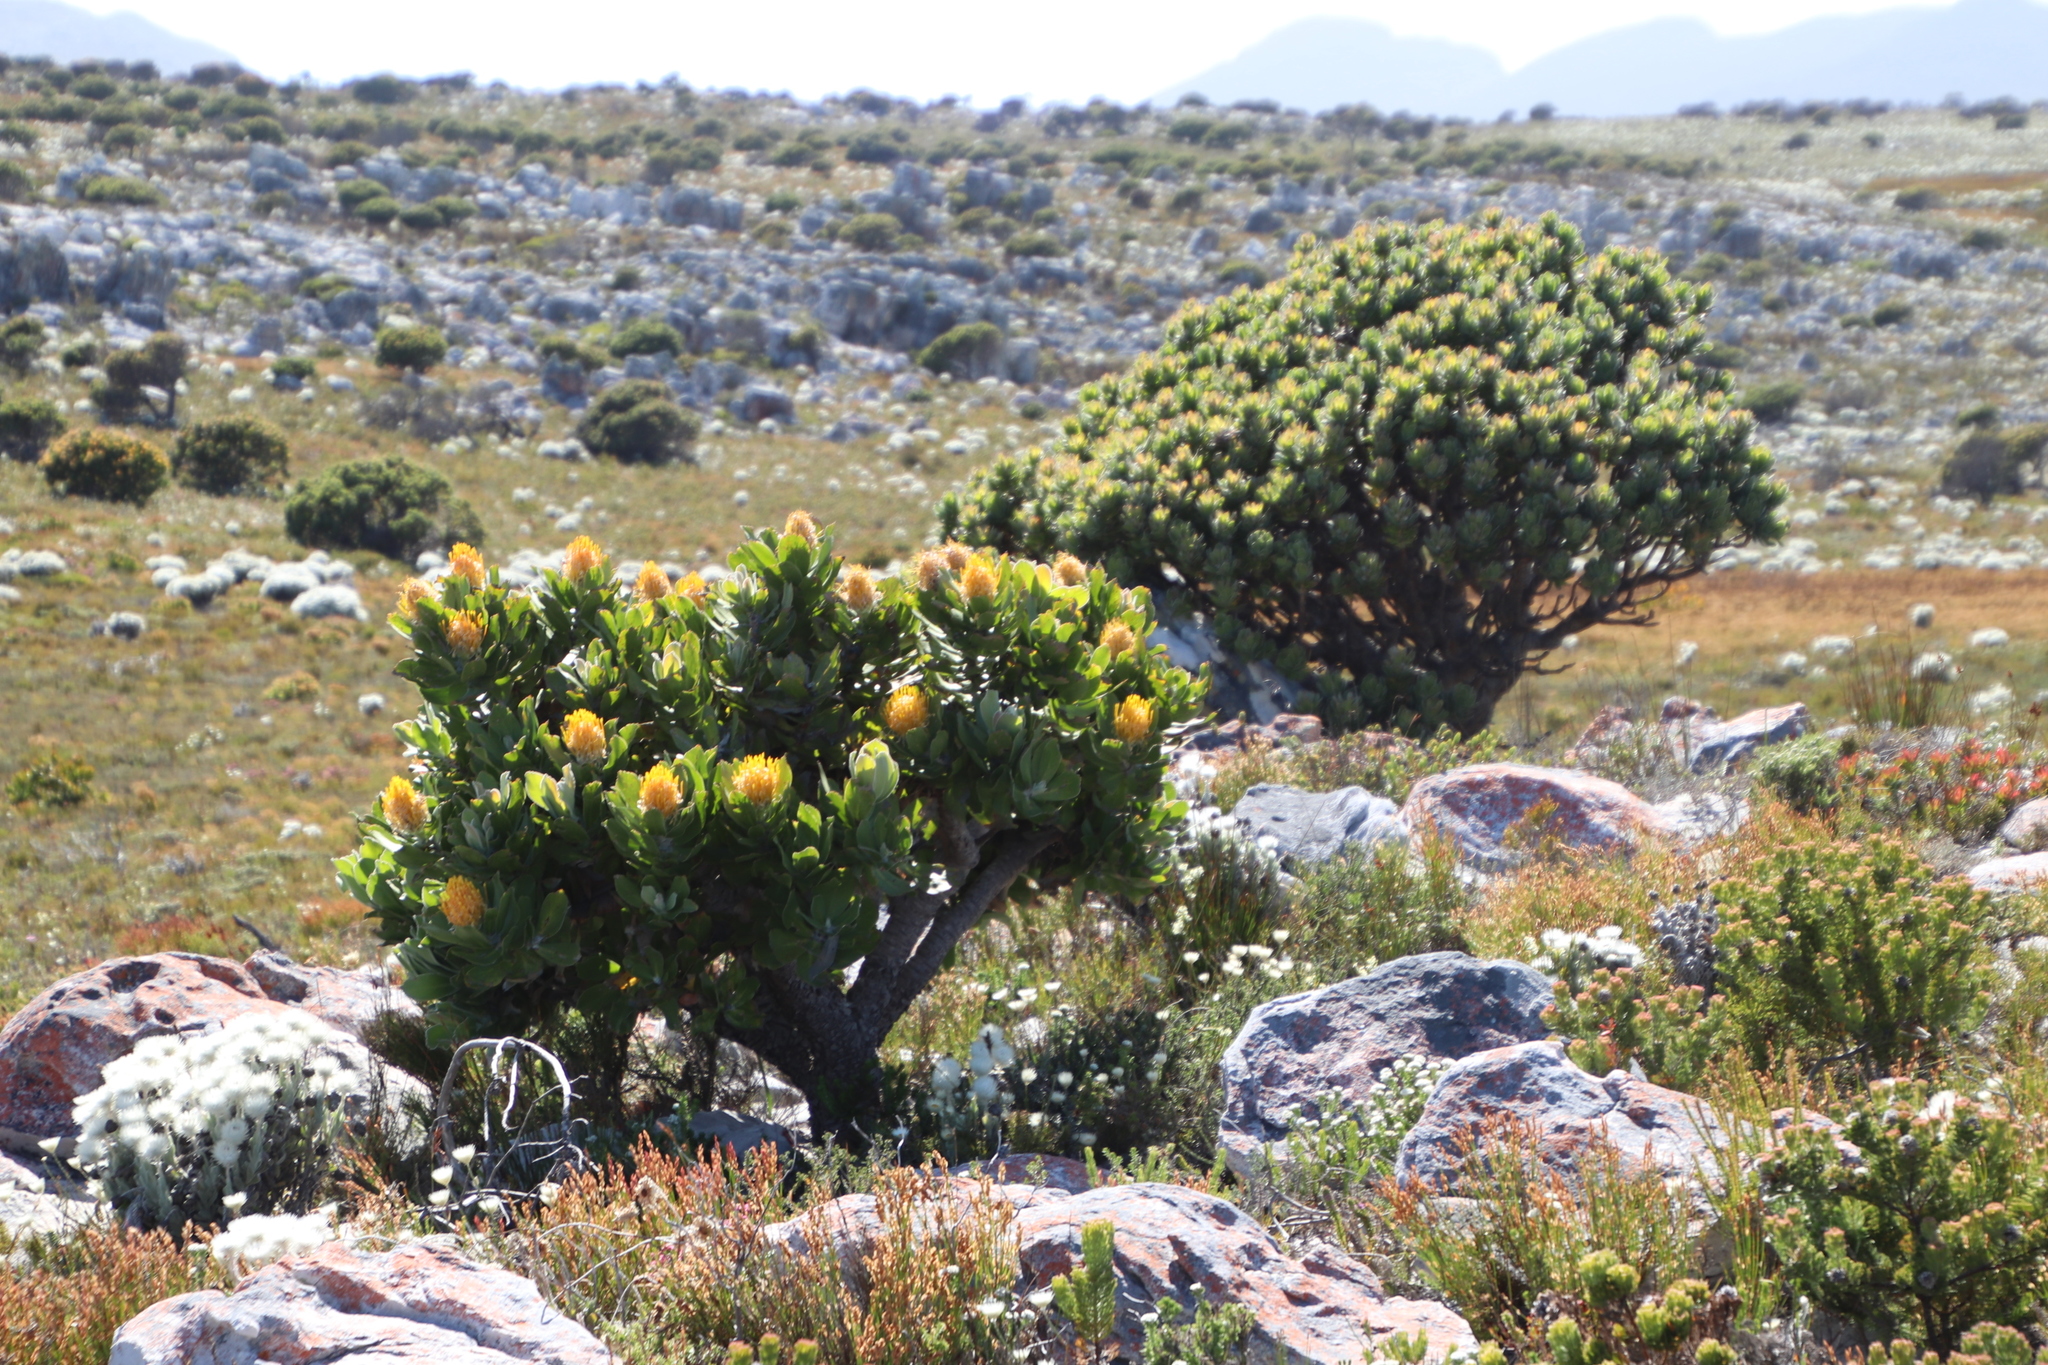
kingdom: Plantae
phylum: Tracheophyta
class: Magnoliopsida
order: Proteales
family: Proteaceae
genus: Mimetes
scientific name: Mimetes fimbriifolius
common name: Fringed bottlebrush
